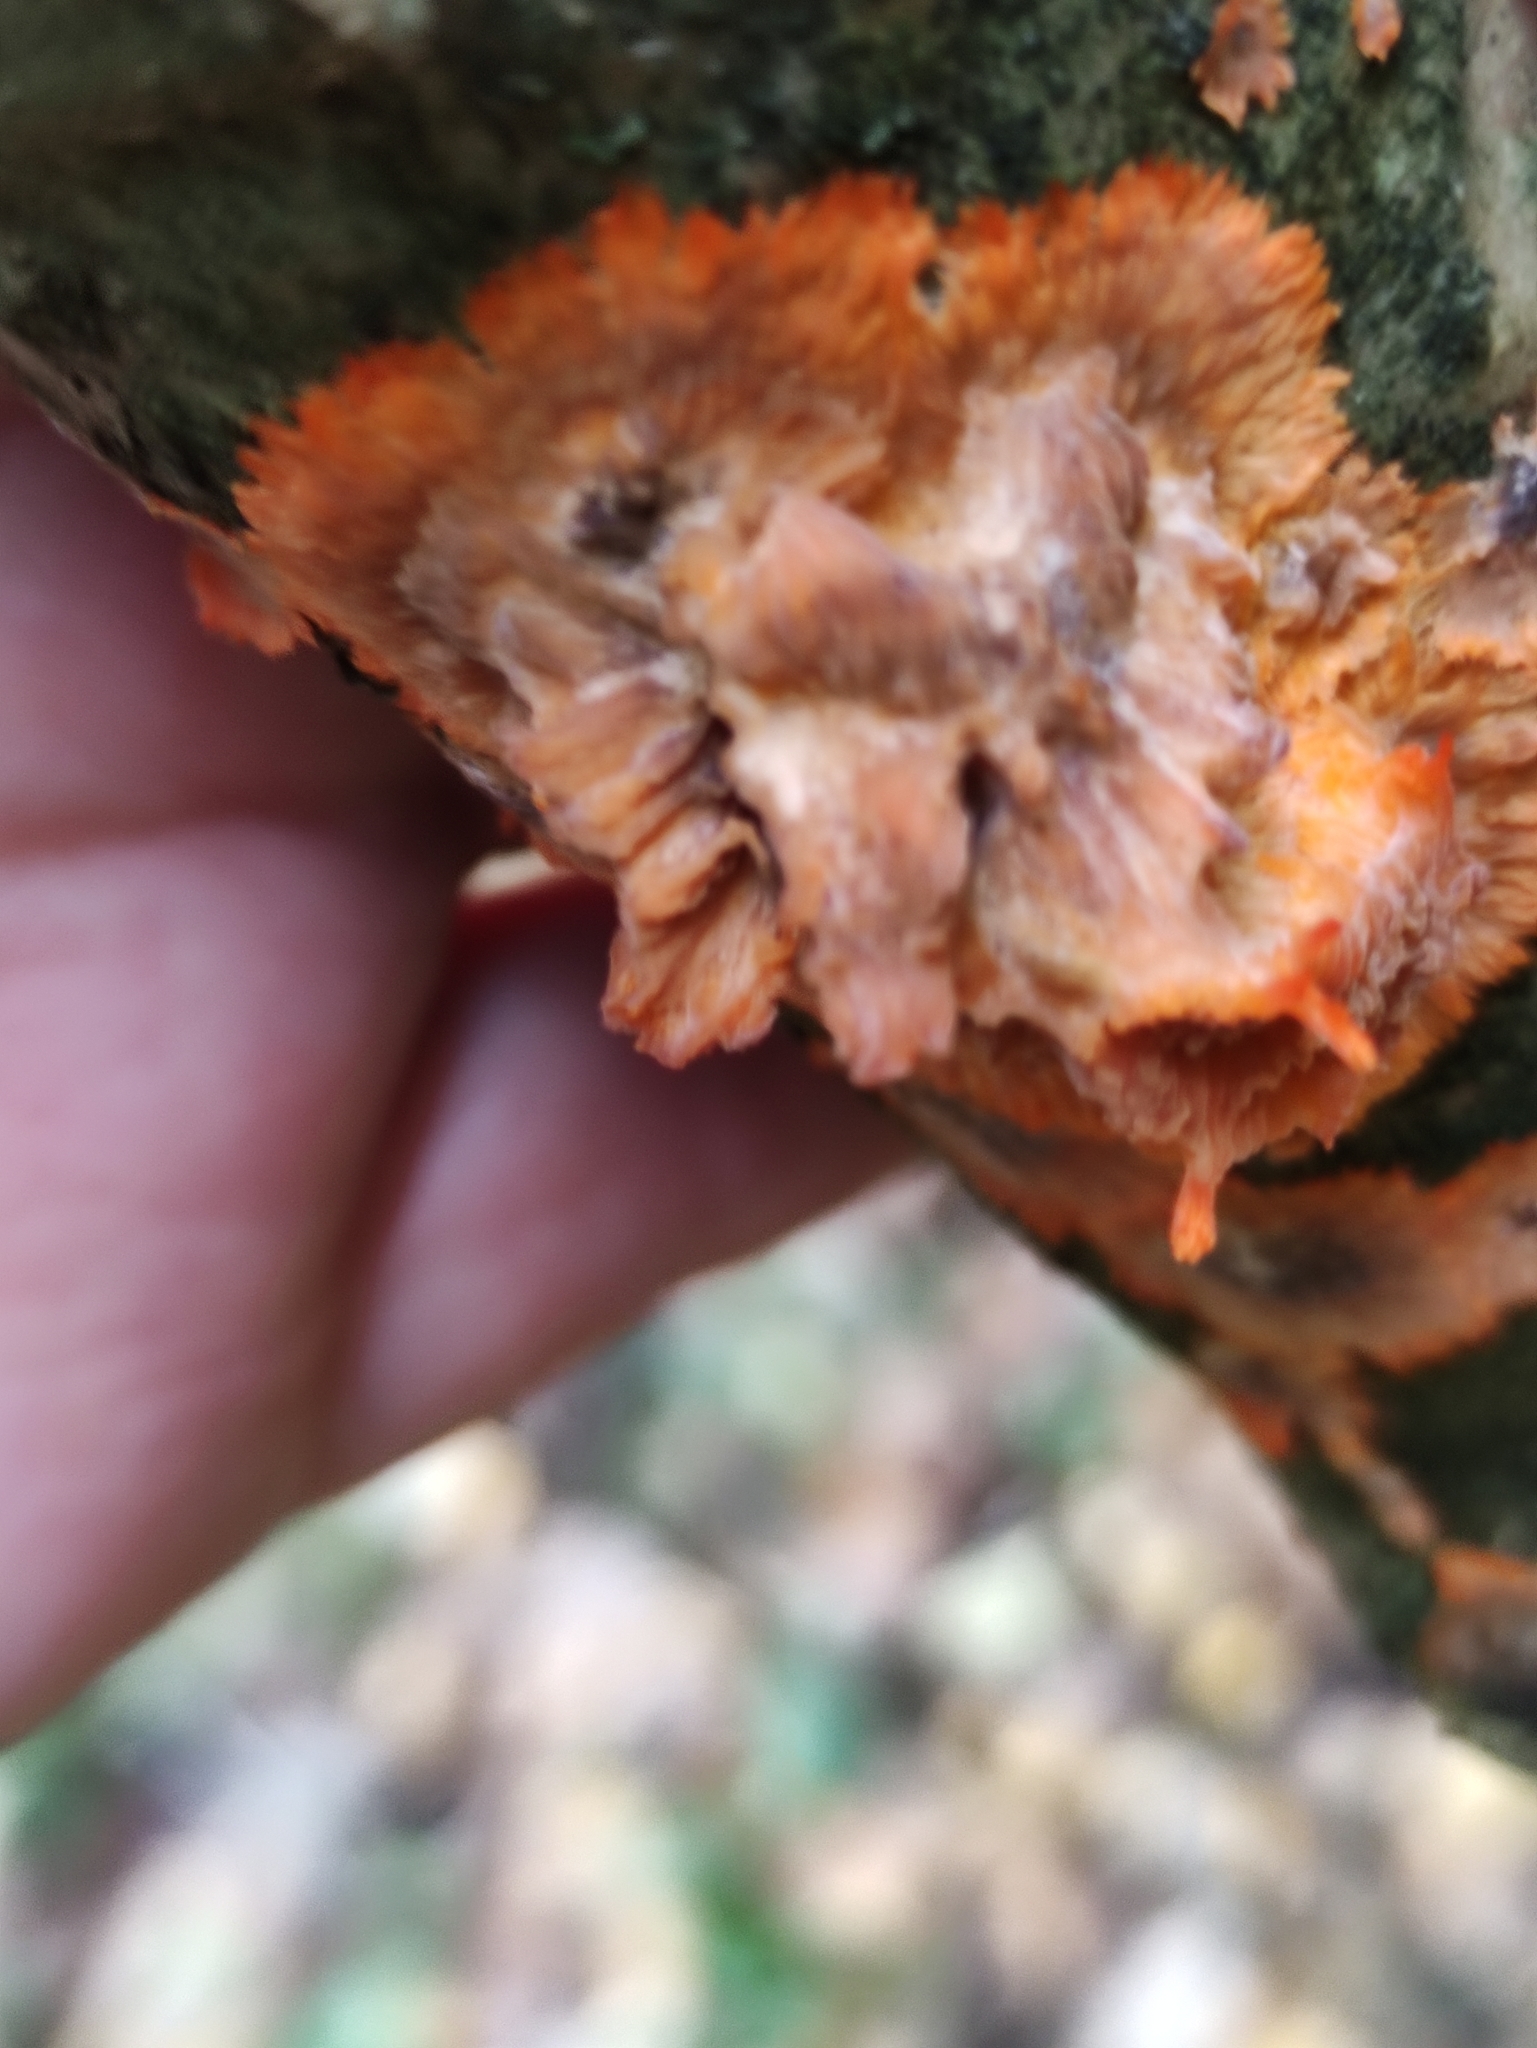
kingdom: Fungi
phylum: Basidiomycota
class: Agaricomycetes
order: Polyporales
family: Meruliaceae
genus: Phlebia
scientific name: Phlebia radiata
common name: Wrinkled crust
